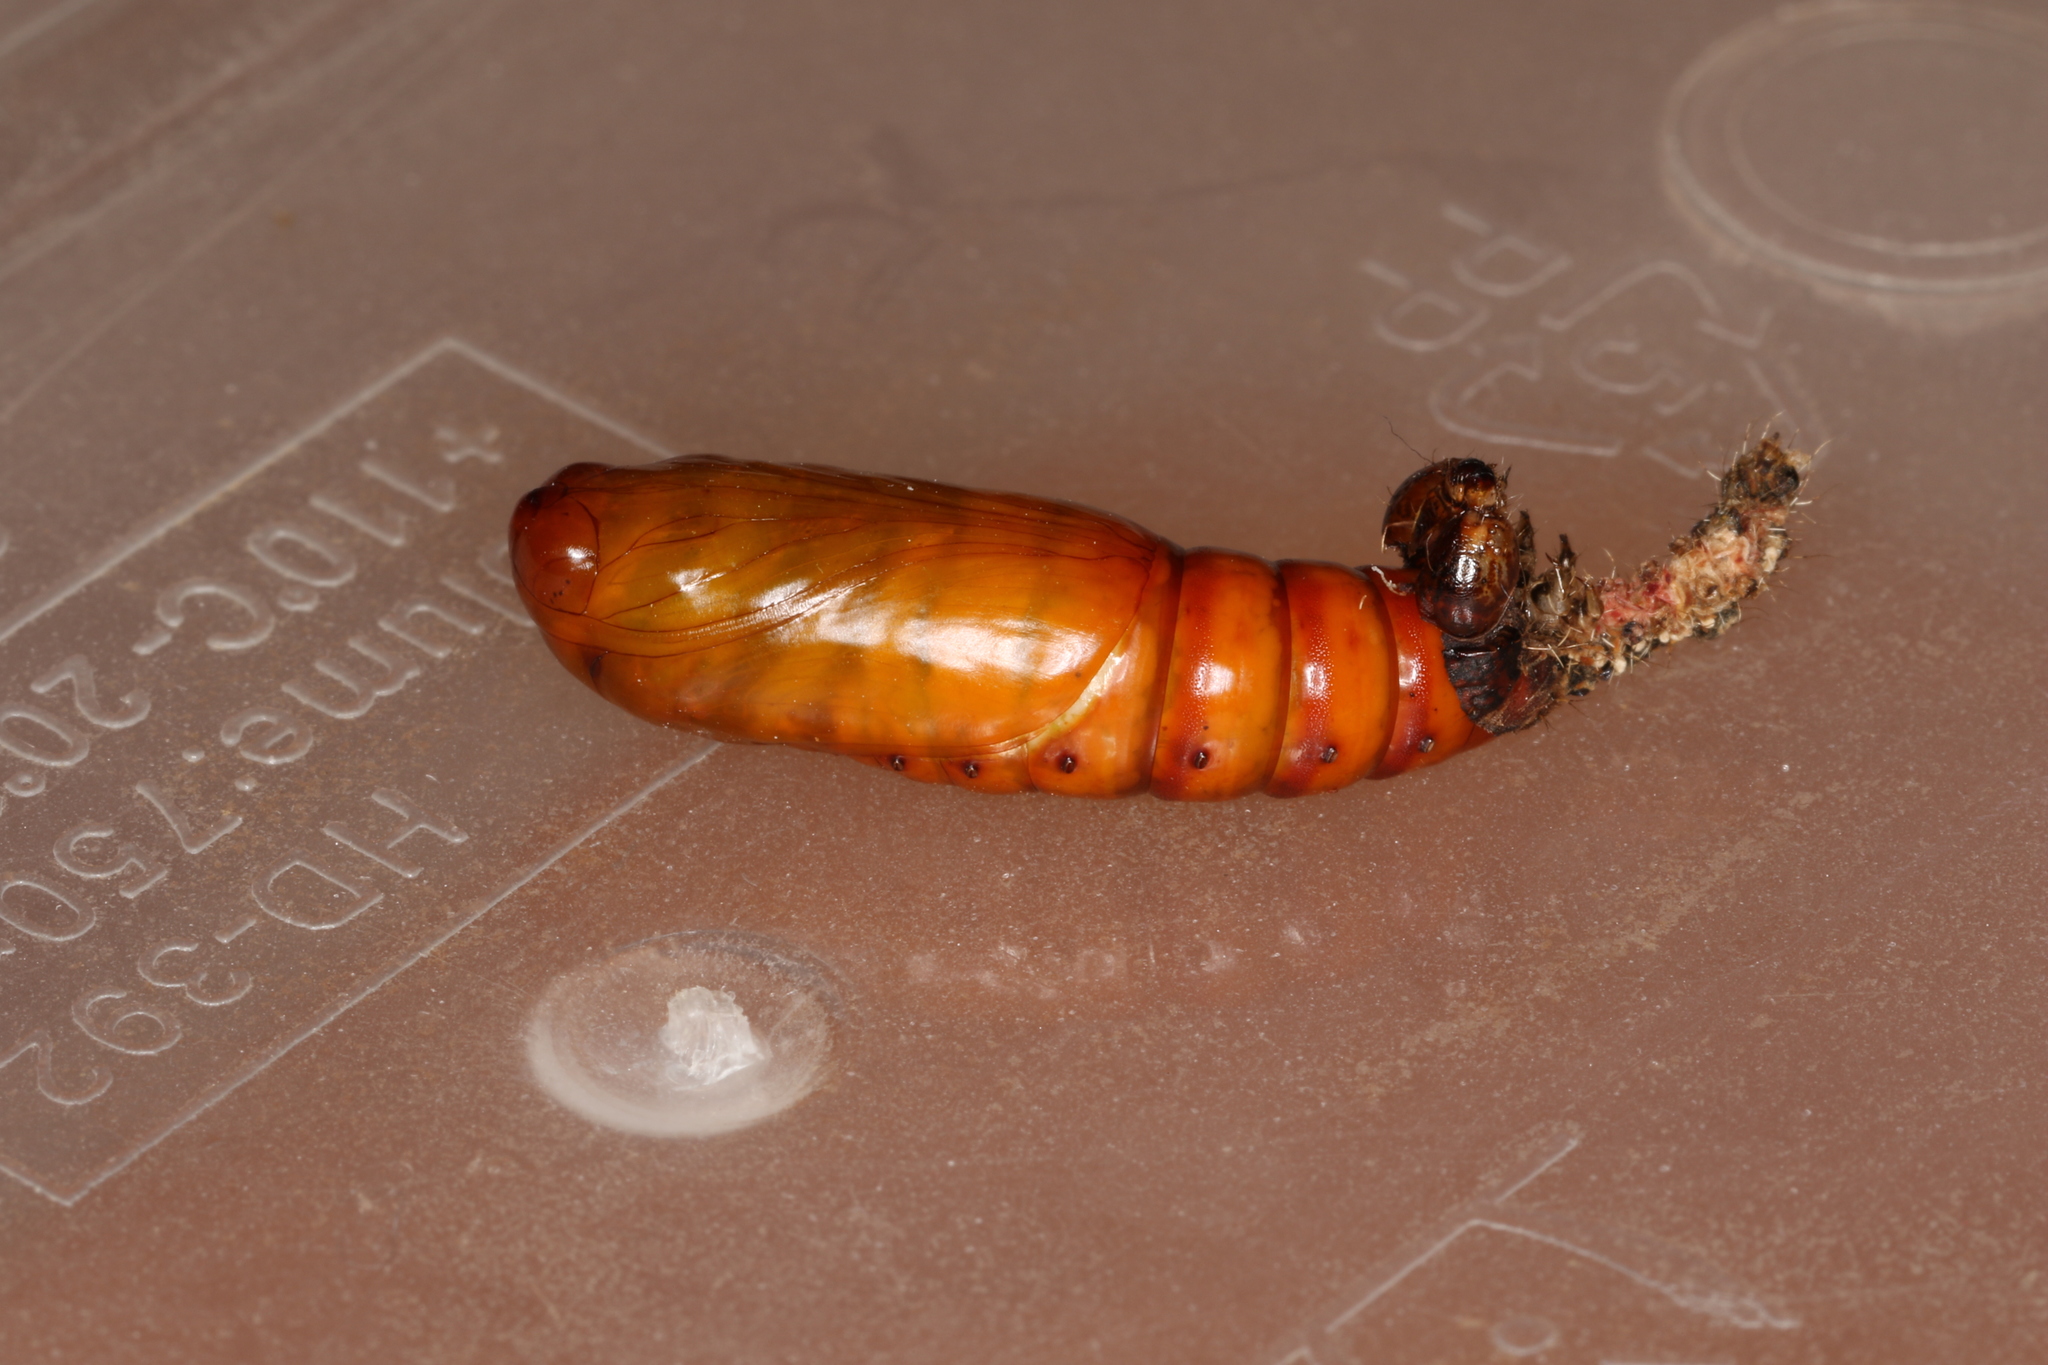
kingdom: Animalia
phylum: Arthropoda
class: Insecta
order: Lepidoptera
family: Noctuidae
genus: Helicoverpa
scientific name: Helicoverpa armigera
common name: Cotton bollworm
